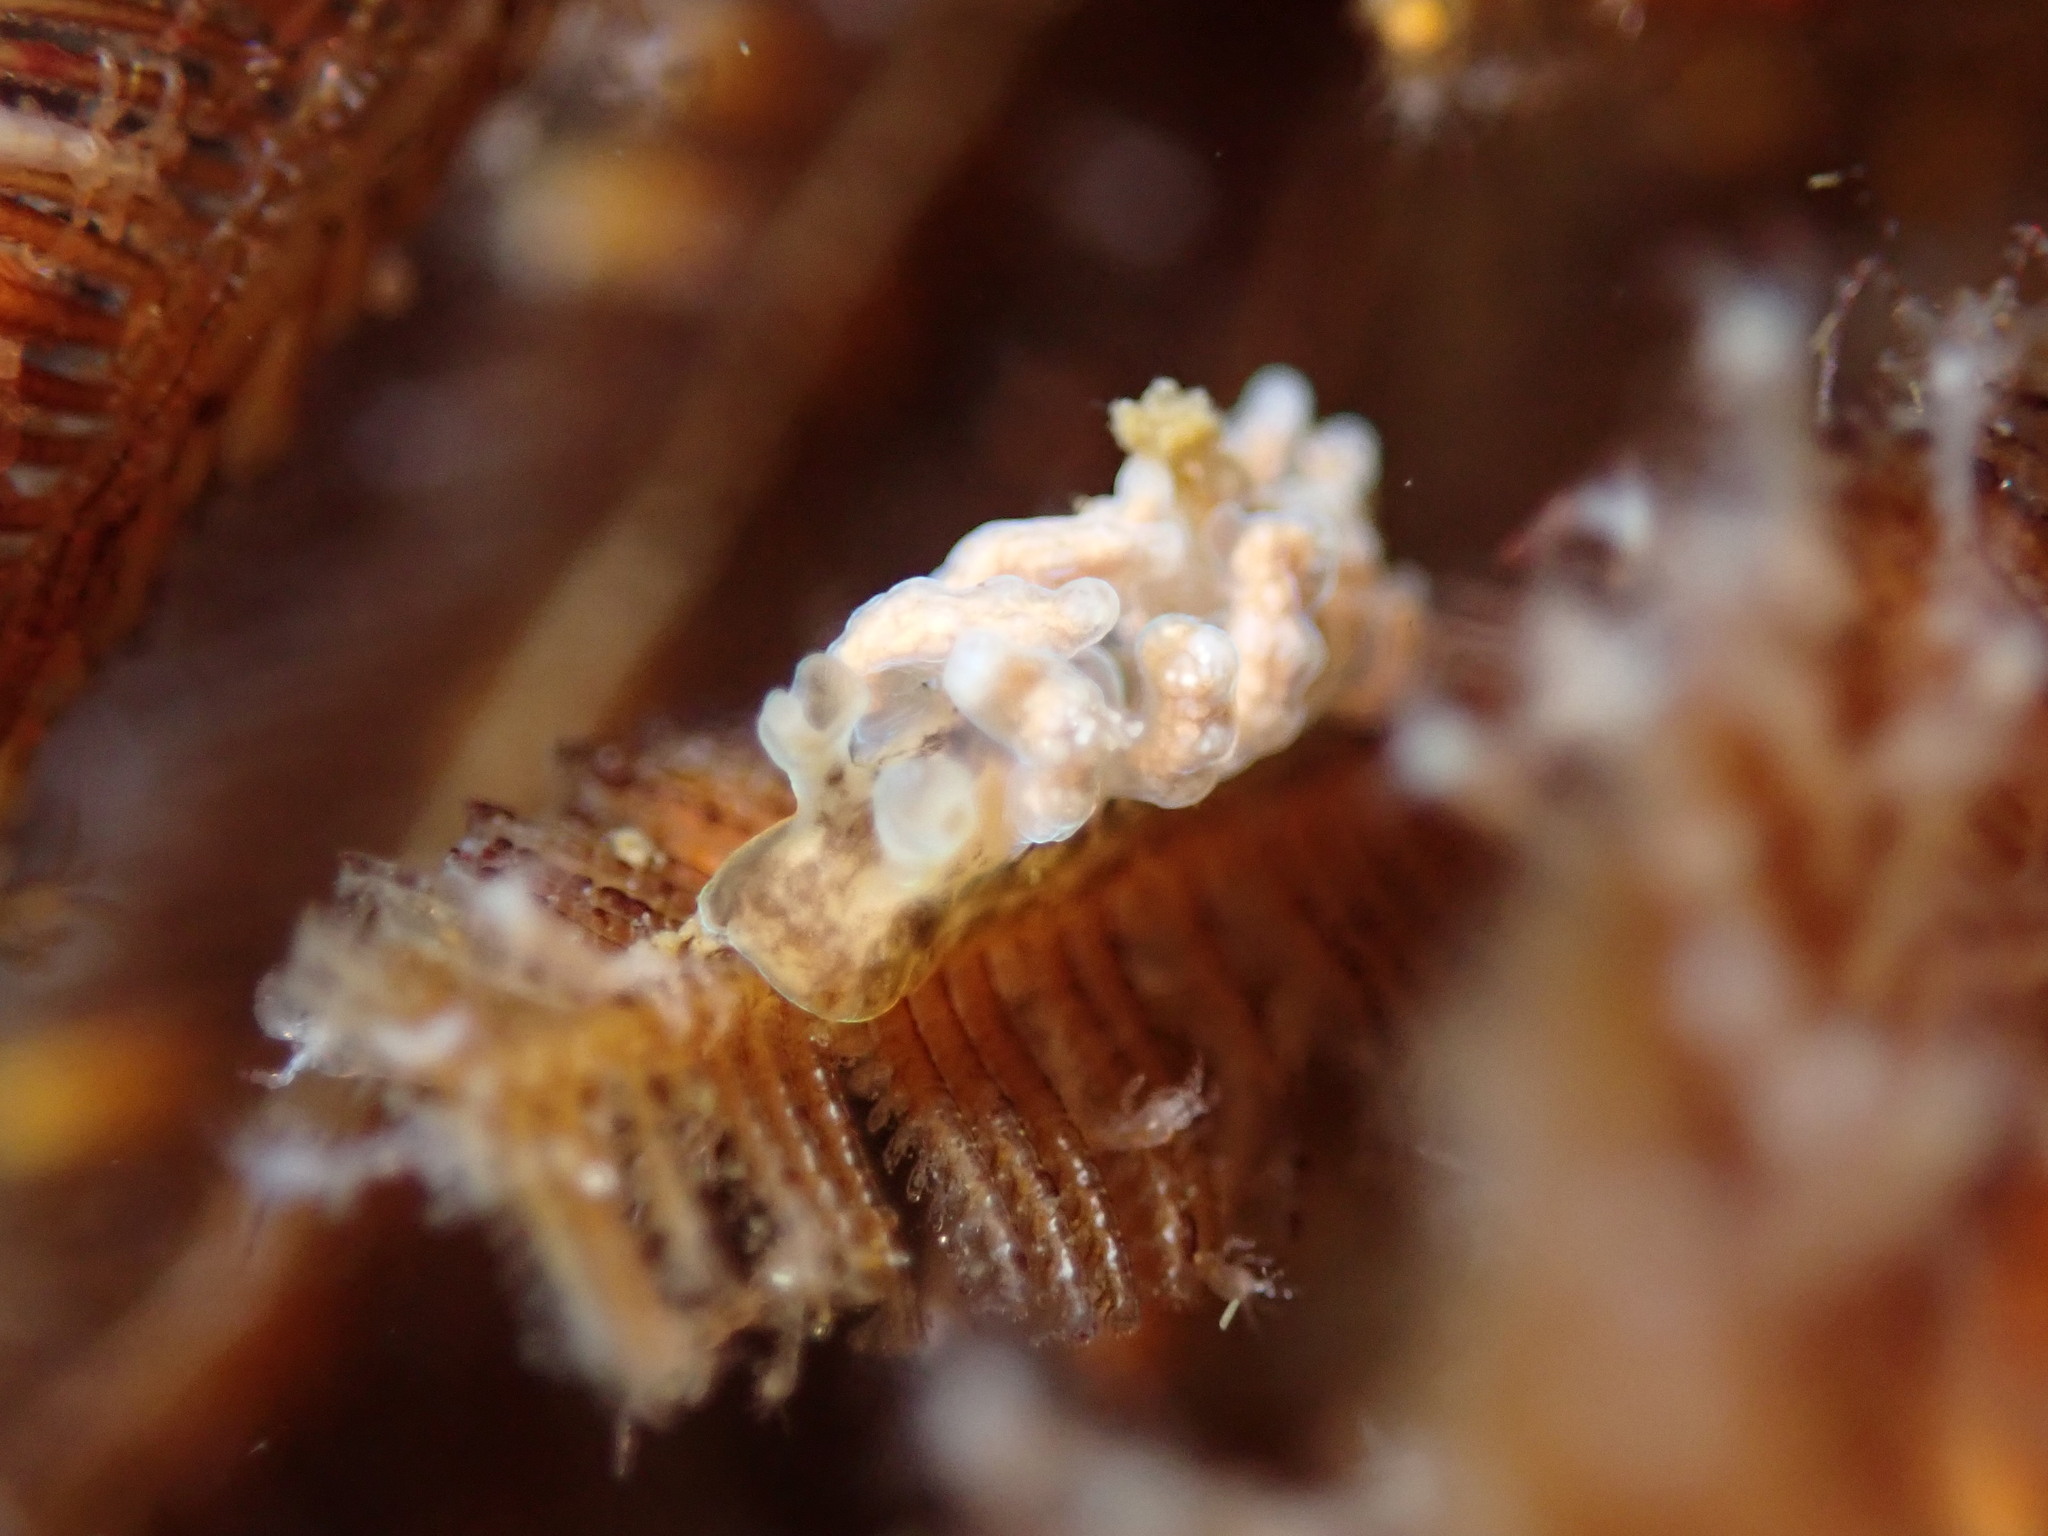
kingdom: Animalia
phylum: Mollusca
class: Gastropoda
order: Nudibranchia
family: Dotidae
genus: Doto
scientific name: Doto columbiana
